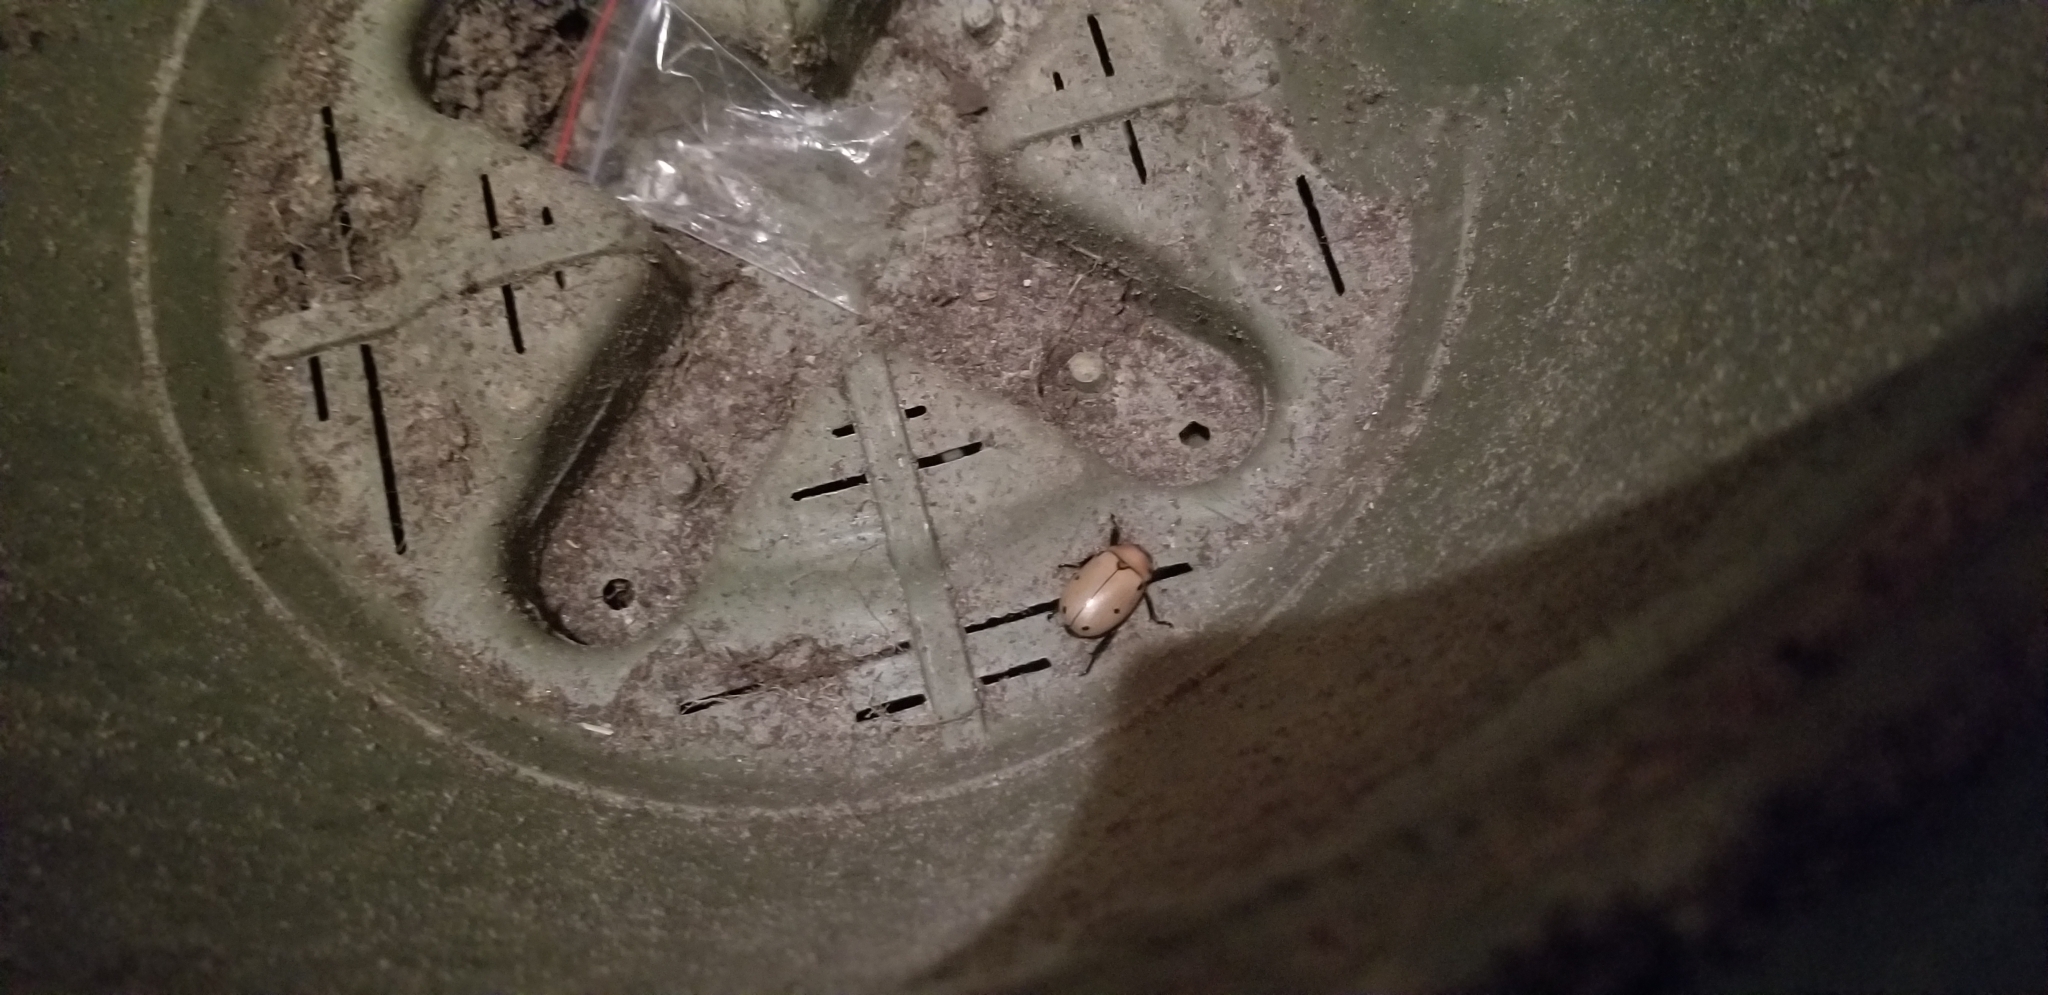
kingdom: Animalia
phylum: Arthropoda
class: Insecta
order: Coleoptera
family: Scarabaeidae
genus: Pelidnota
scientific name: Pelidnota punctata
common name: Grapevine beetle
